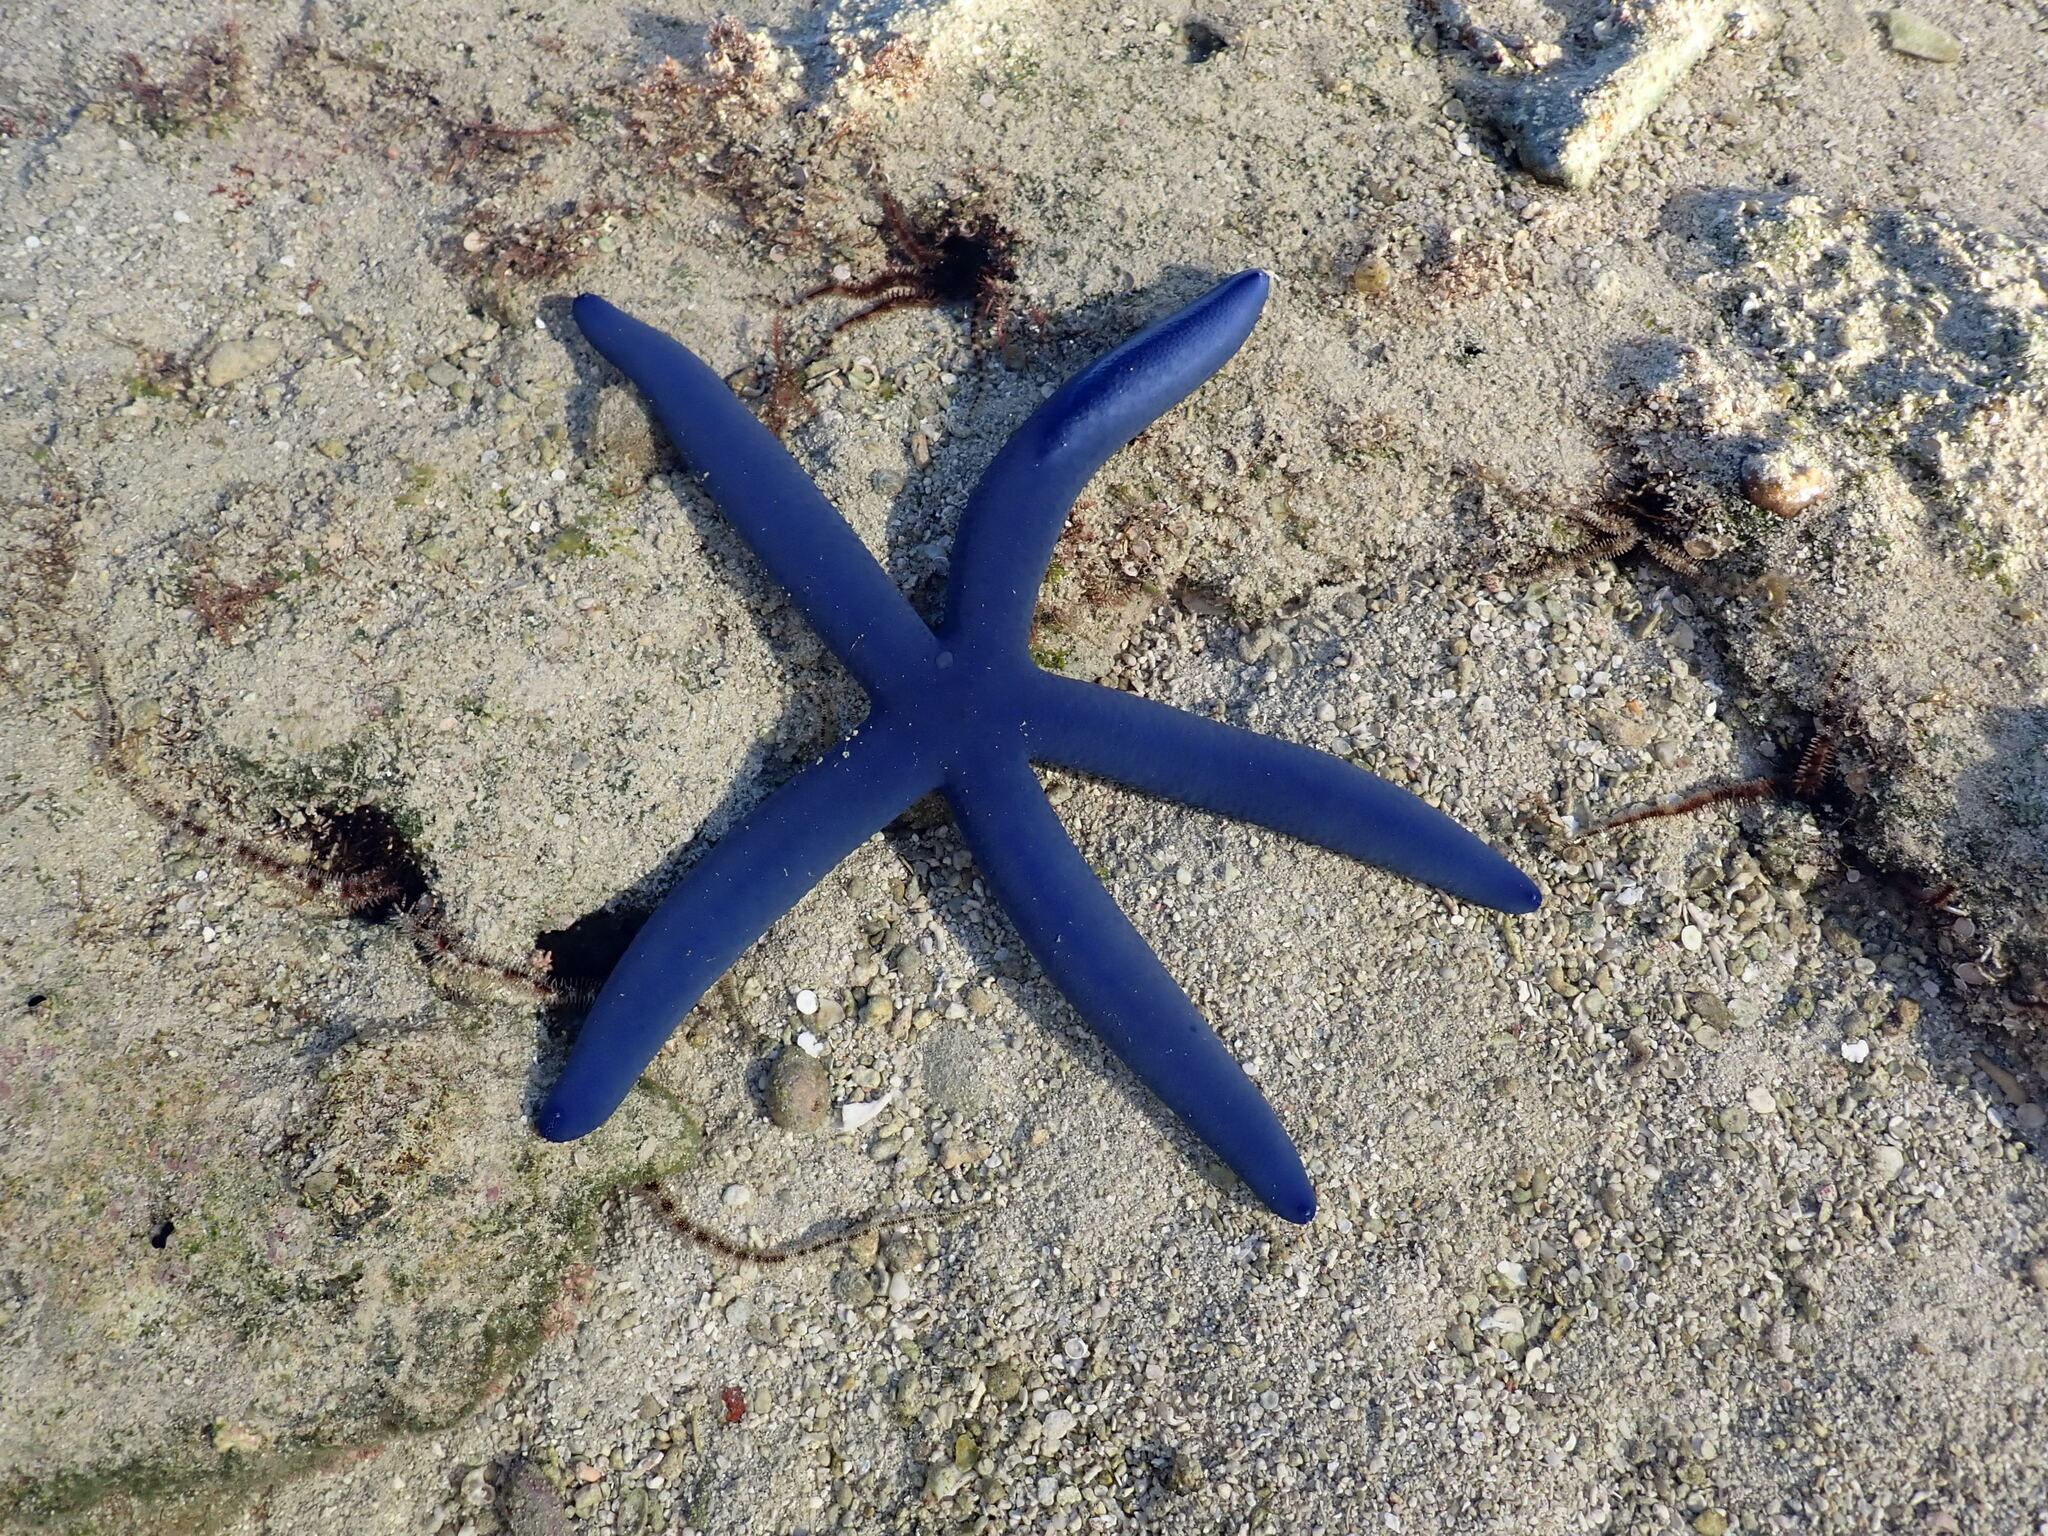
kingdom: Animalia
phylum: Echinodermata
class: Asteroidea
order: Valvatida
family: Ophidiasteridae
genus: Linckia
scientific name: Linckia laevigata
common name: Azure sea star
